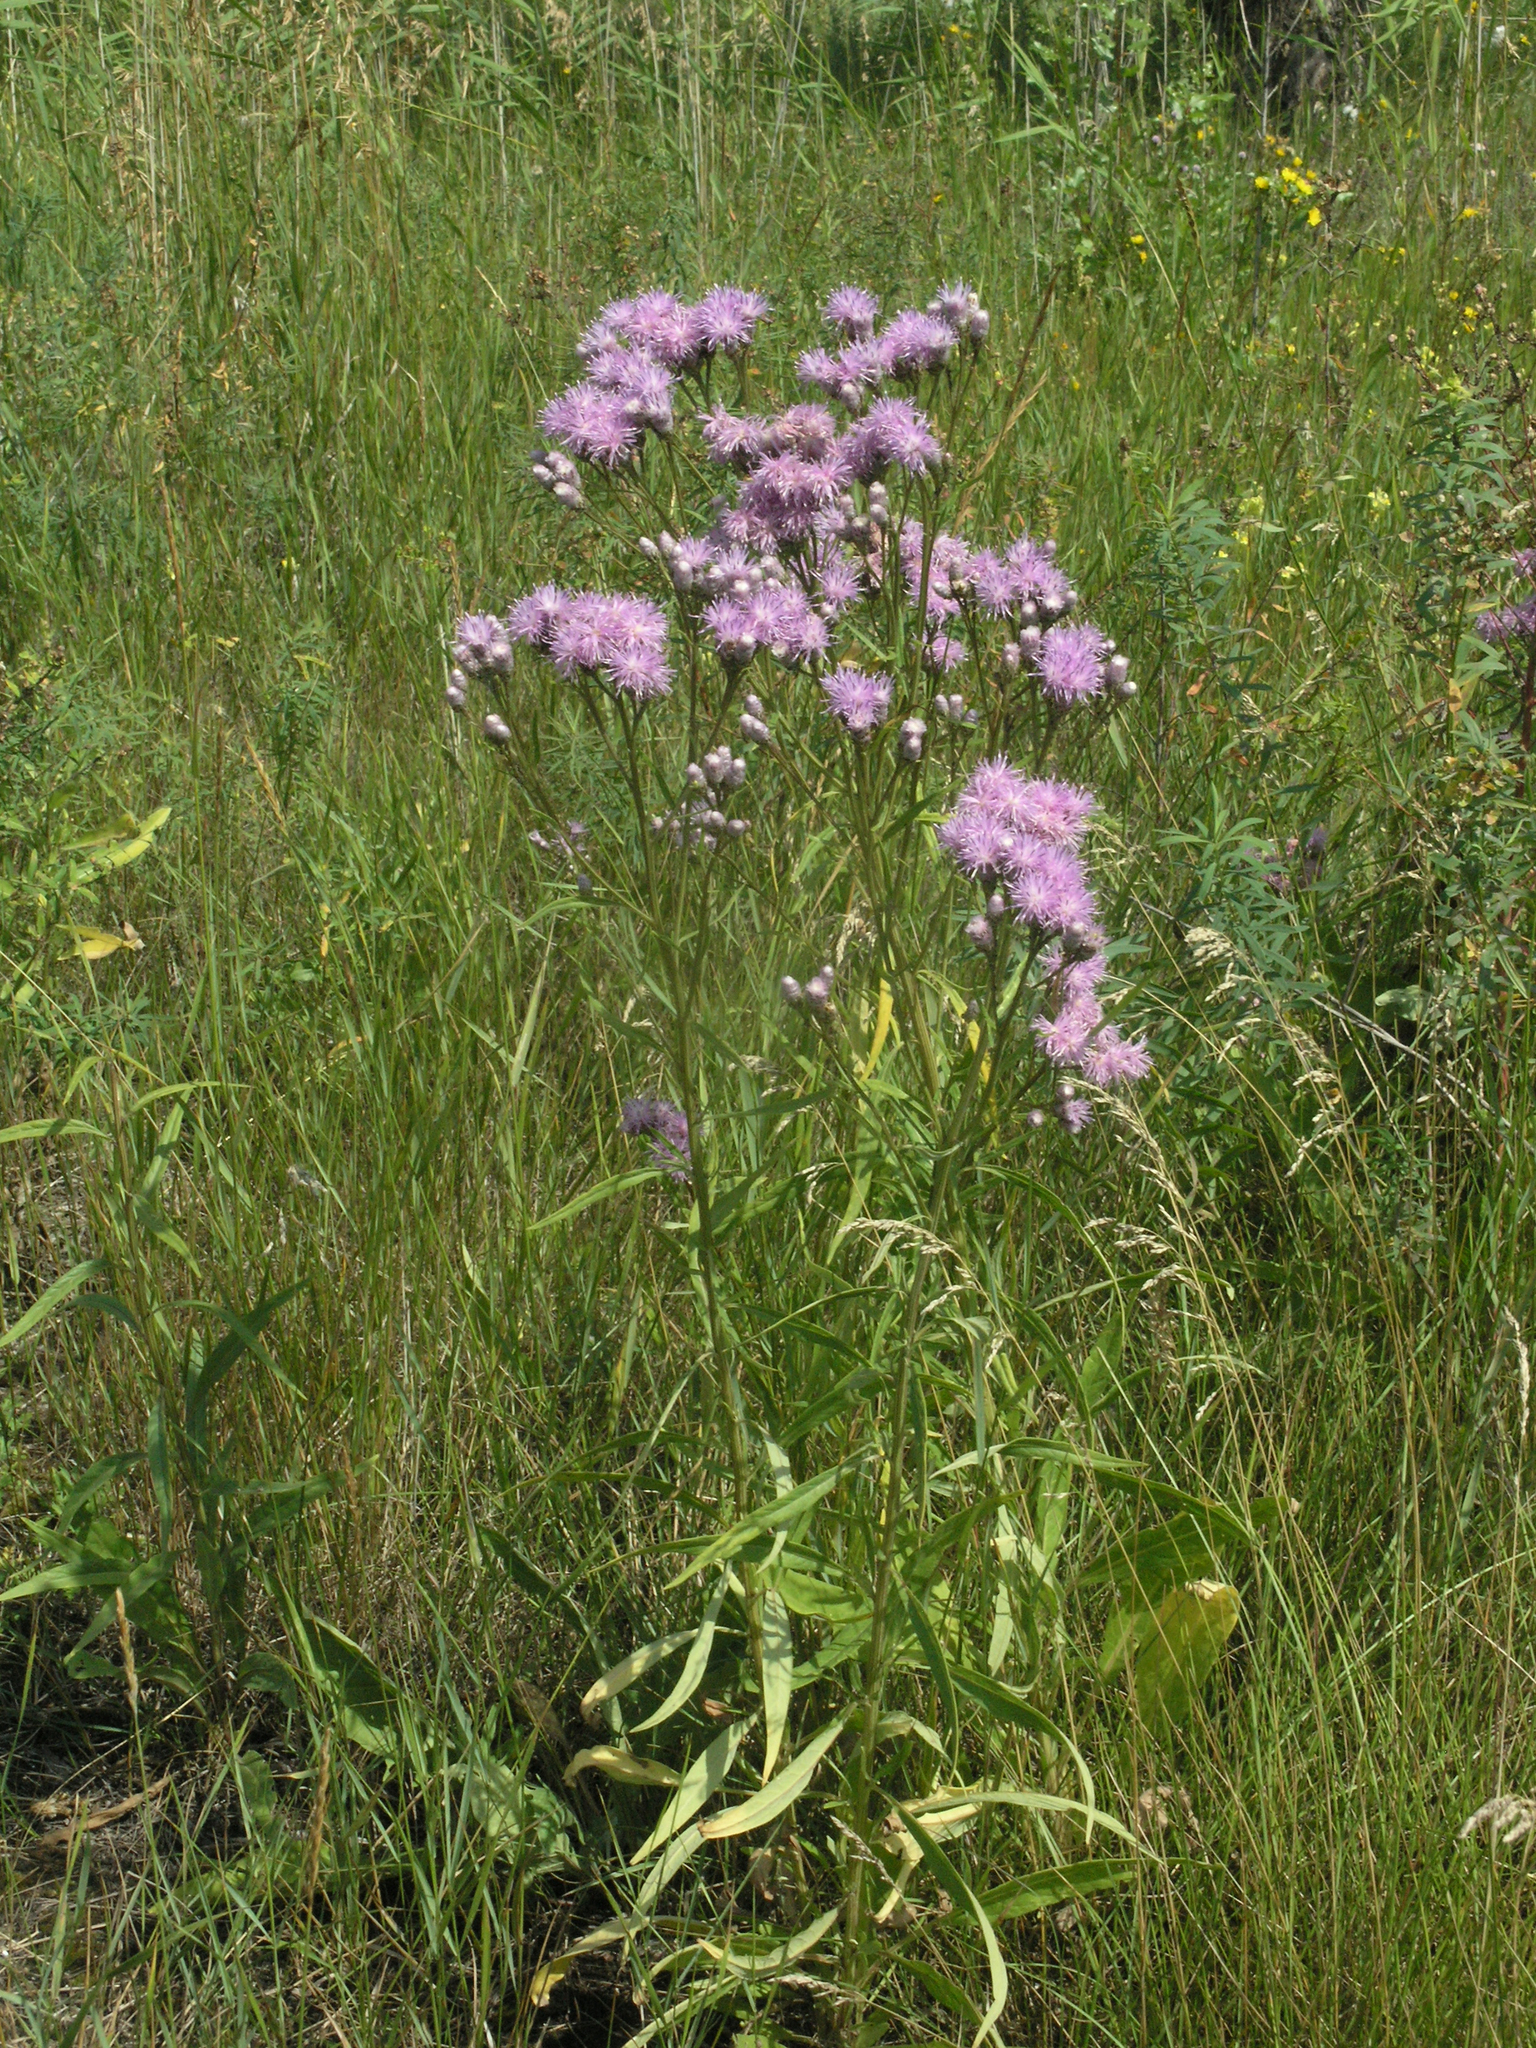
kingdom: Plantae
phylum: Tracheophyta
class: Magnoliopsida
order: Asterales
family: Asteraceae
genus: Saussurea
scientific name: Saussurea amara
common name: Alberta sawwort
